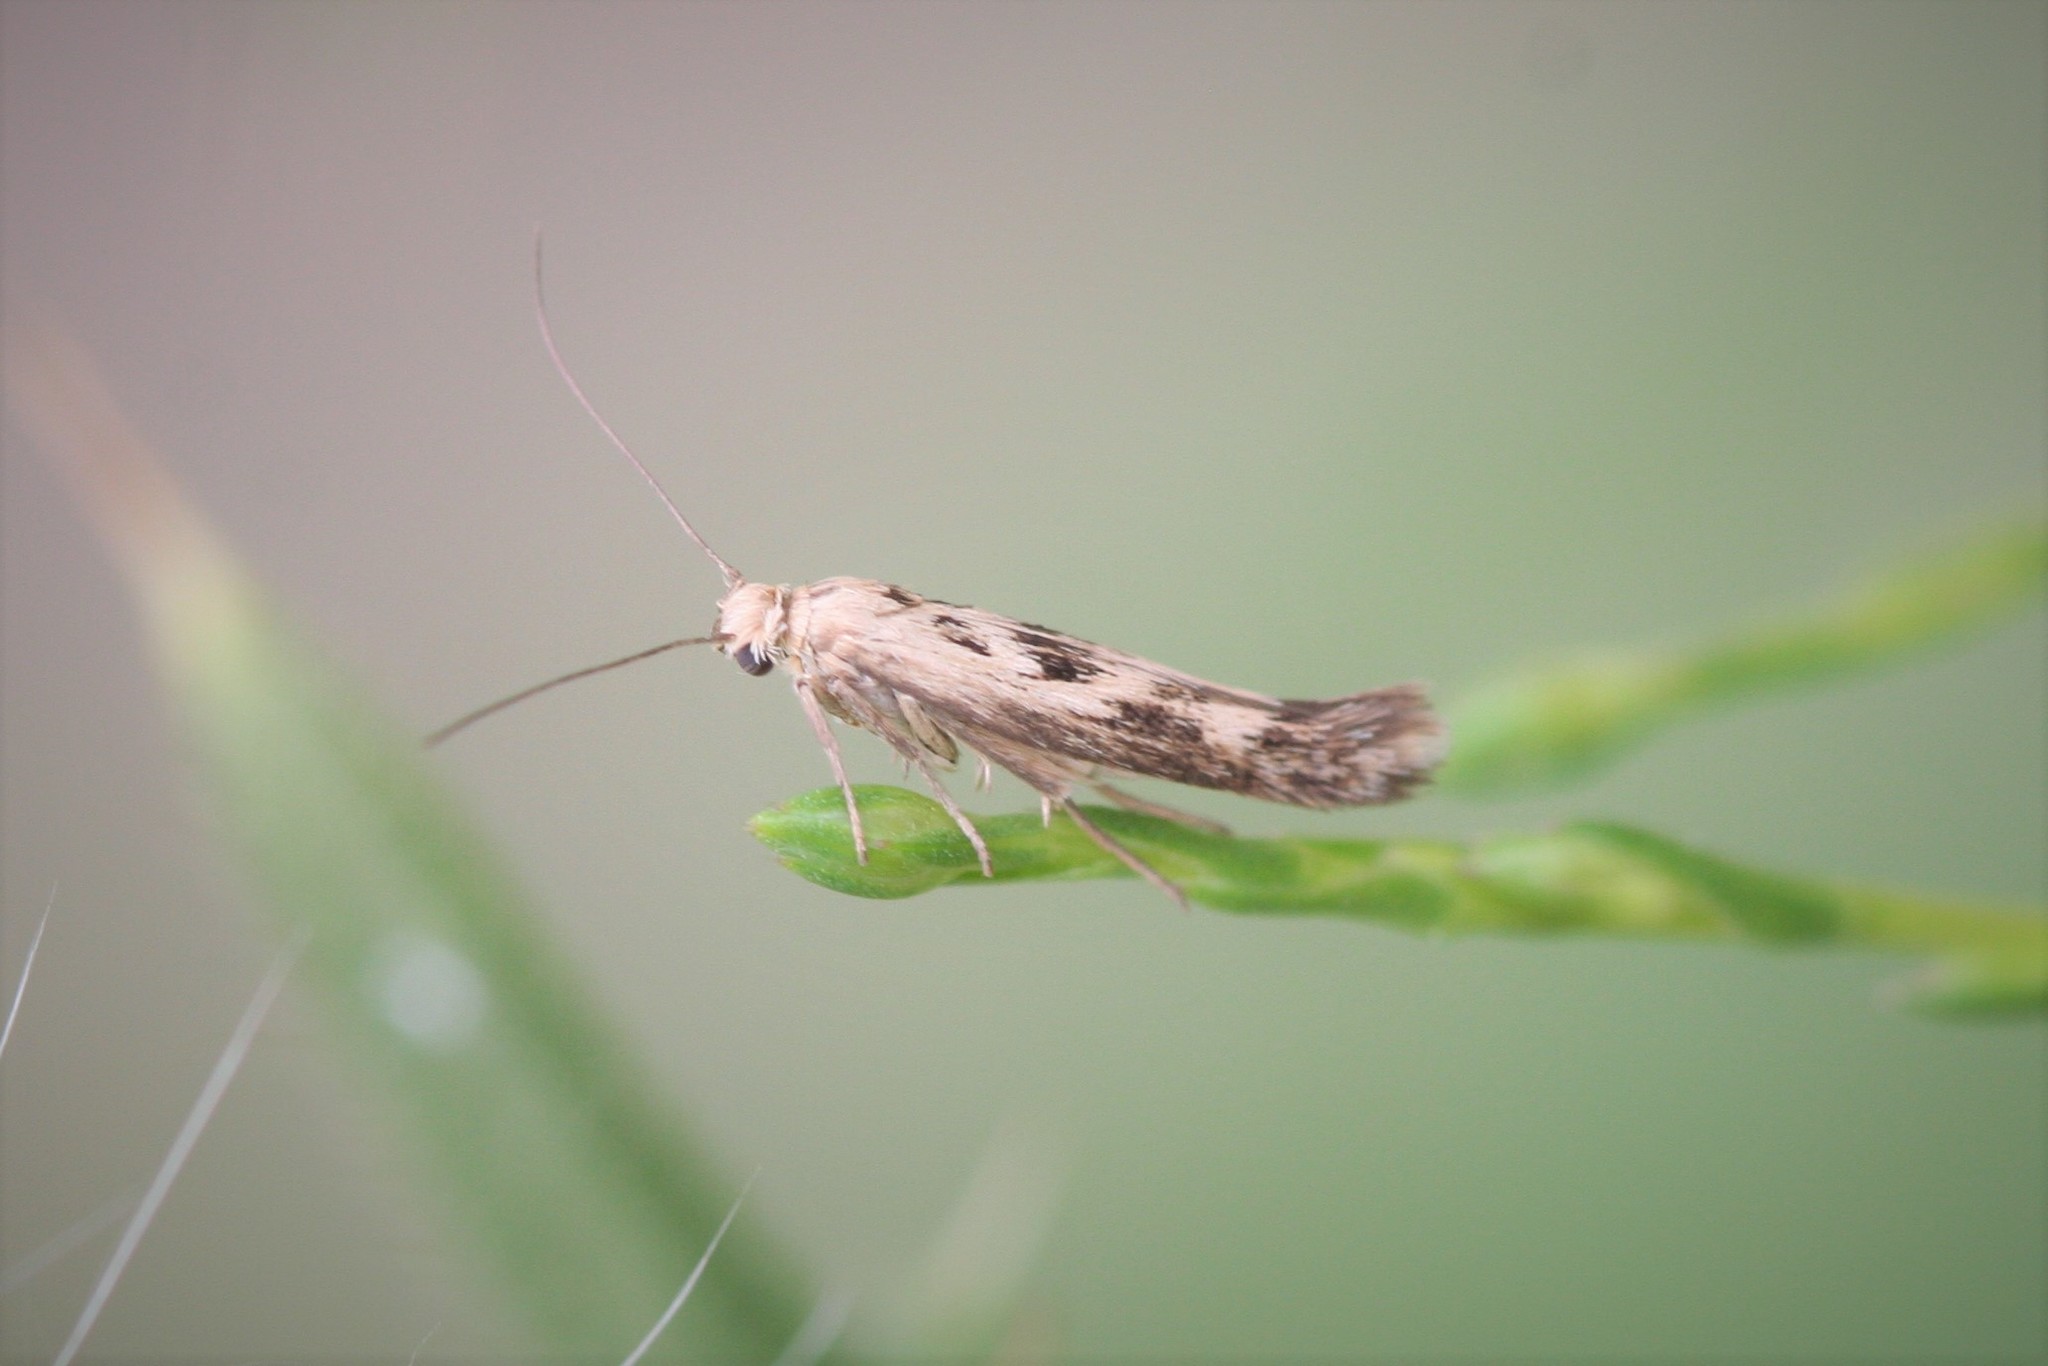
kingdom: Animalia
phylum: Arthropoda
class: Insecta
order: Lepidoptera
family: Scythrididae
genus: Scythris
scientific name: Scythris limbella
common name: Goosefoot owlet
